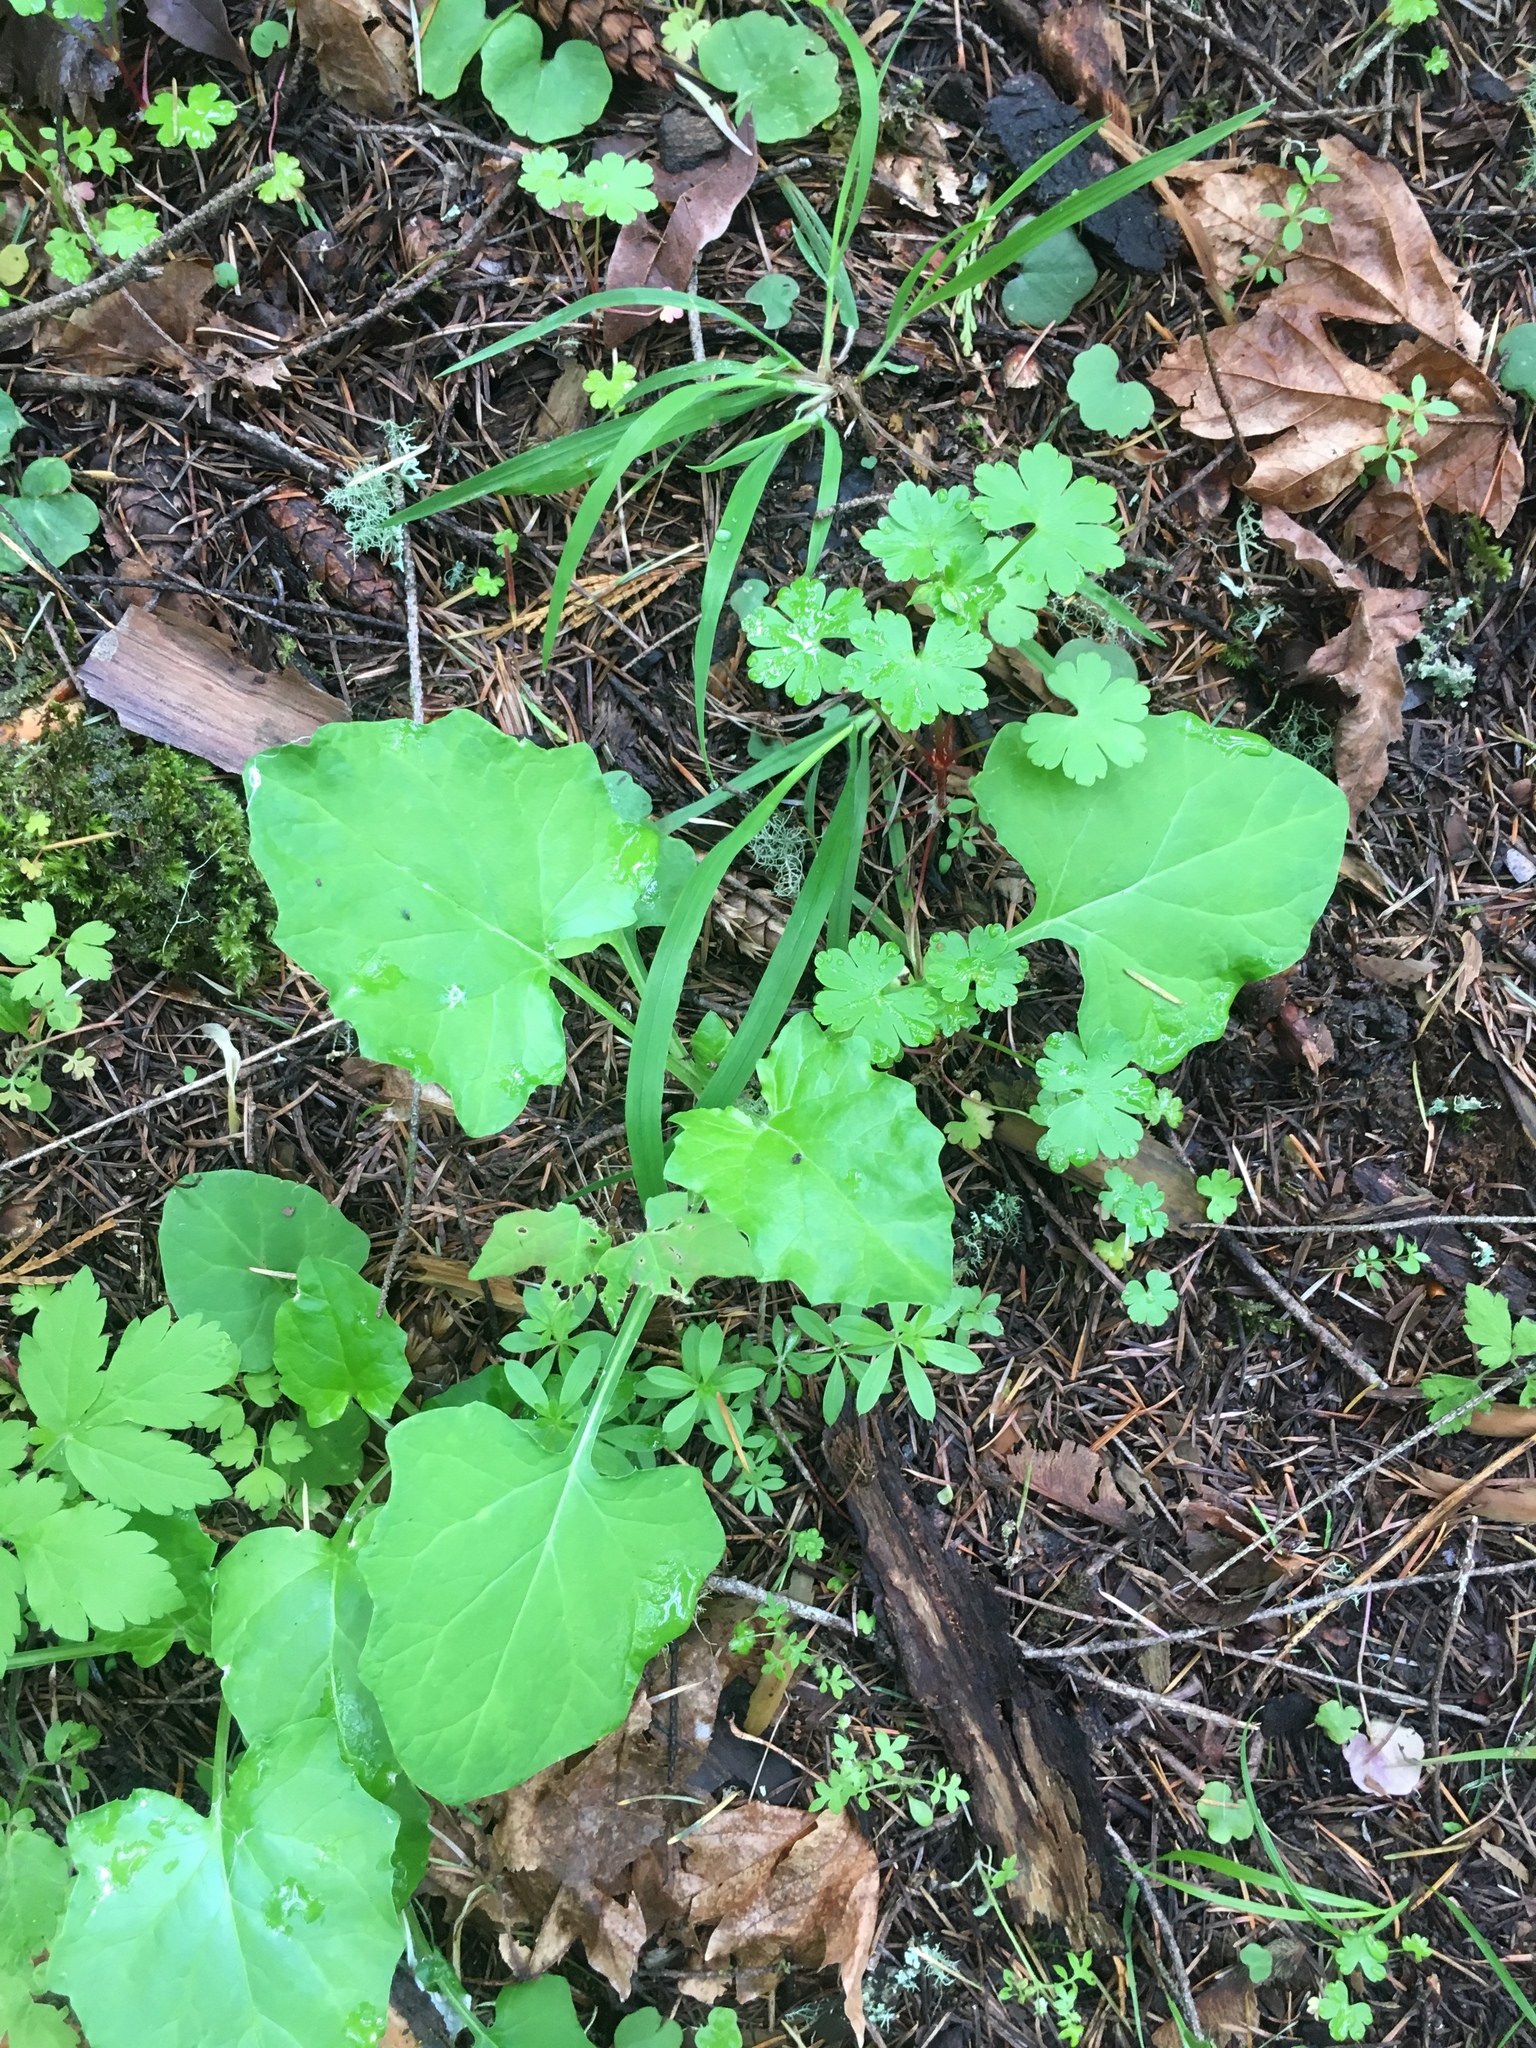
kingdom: Plantae
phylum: Tracheophyta
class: Magnoliopsida
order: Asterales
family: Asteraceae
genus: Adenocaulon
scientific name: Adenocaulon bicolor
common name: Trailplant
